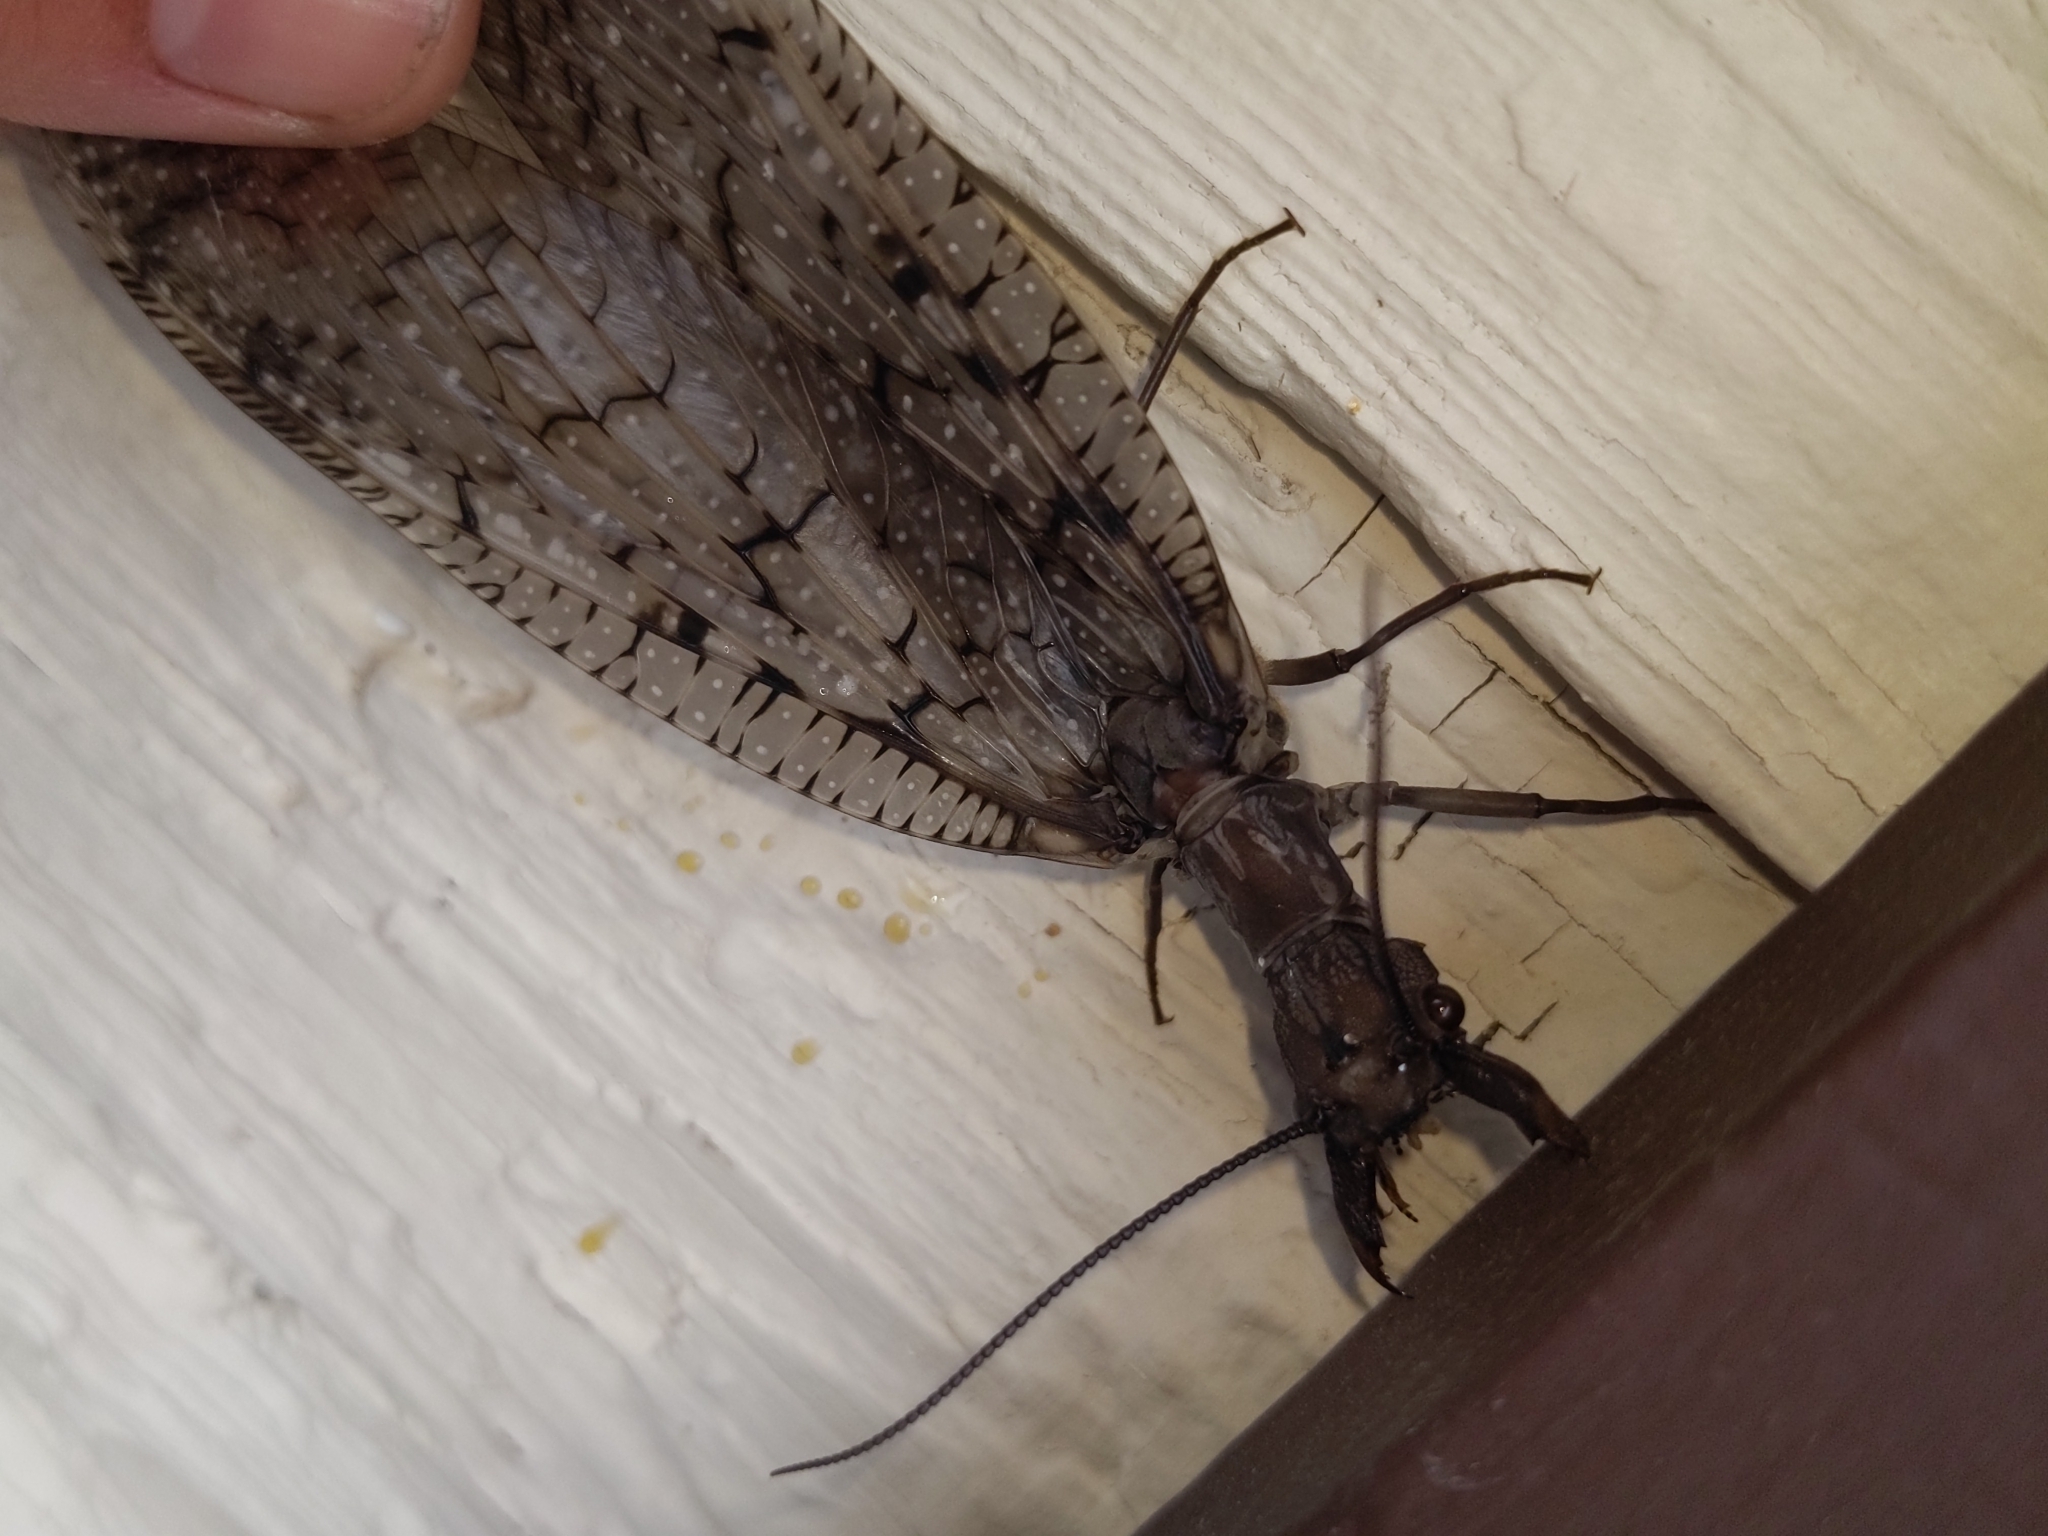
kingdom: Animalia
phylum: Arthropoda
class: Insecta
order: Megaloptera
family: Corydalidae
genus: Corydalus
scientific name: Corydalus cornutus
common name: Dobsonfly
